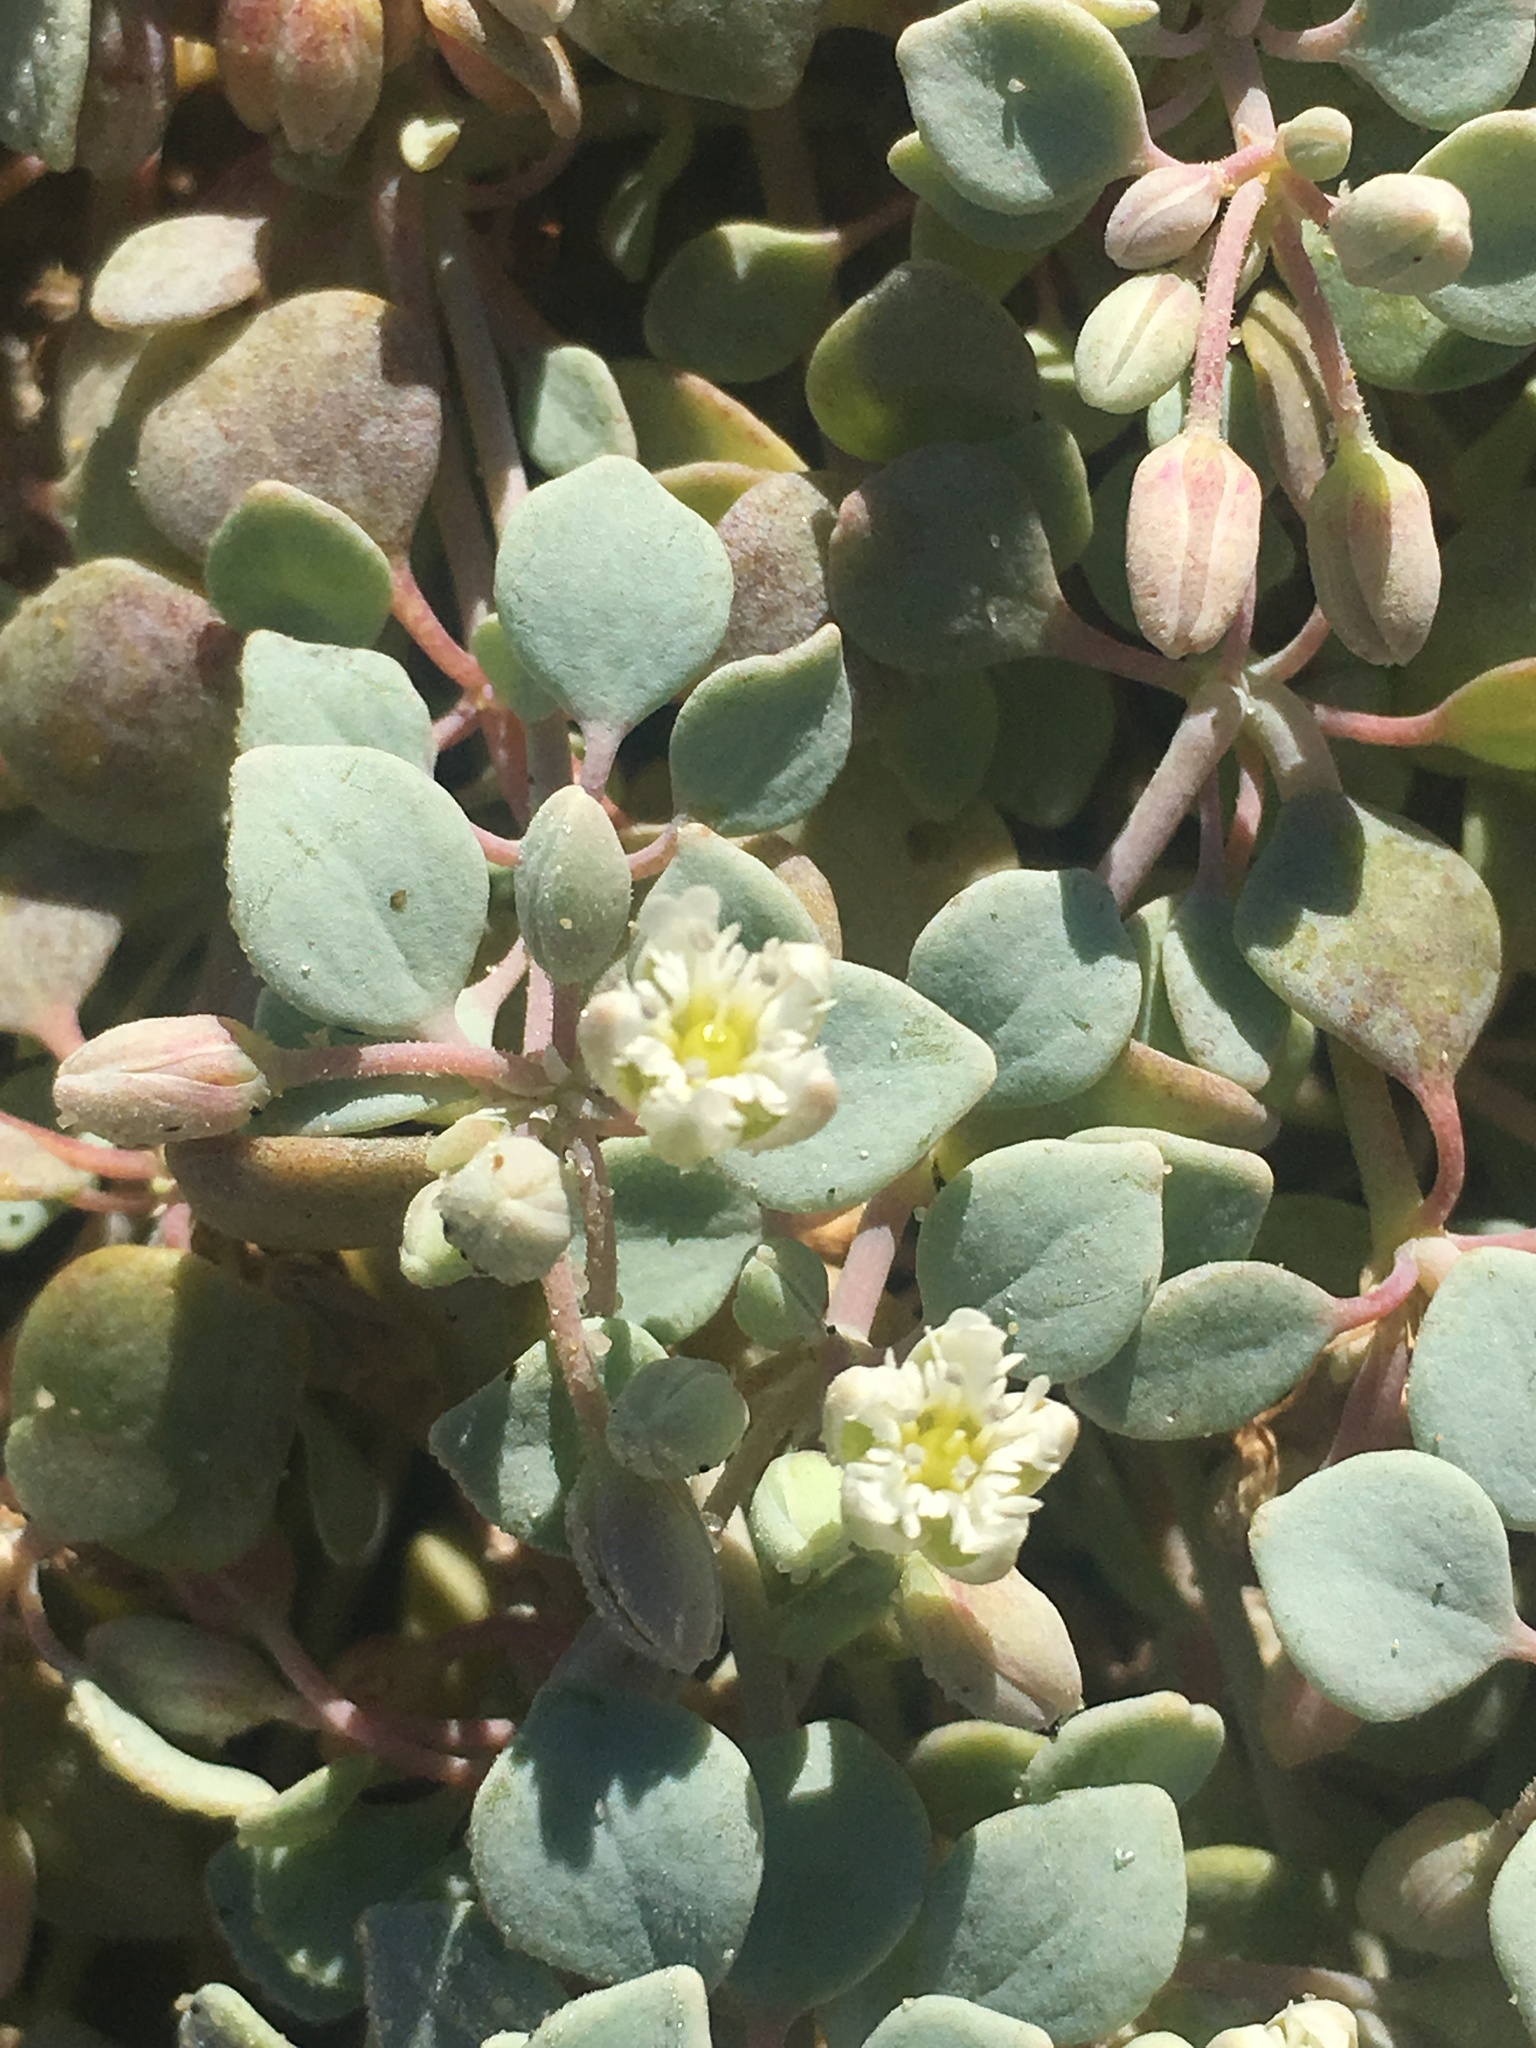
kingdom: Plantae
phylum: Tracheophyta
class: Magnoliopsida
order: Caryophyllales
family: Caryophyllaceae
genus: Drymaria
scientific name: Drymaria holosteoides
